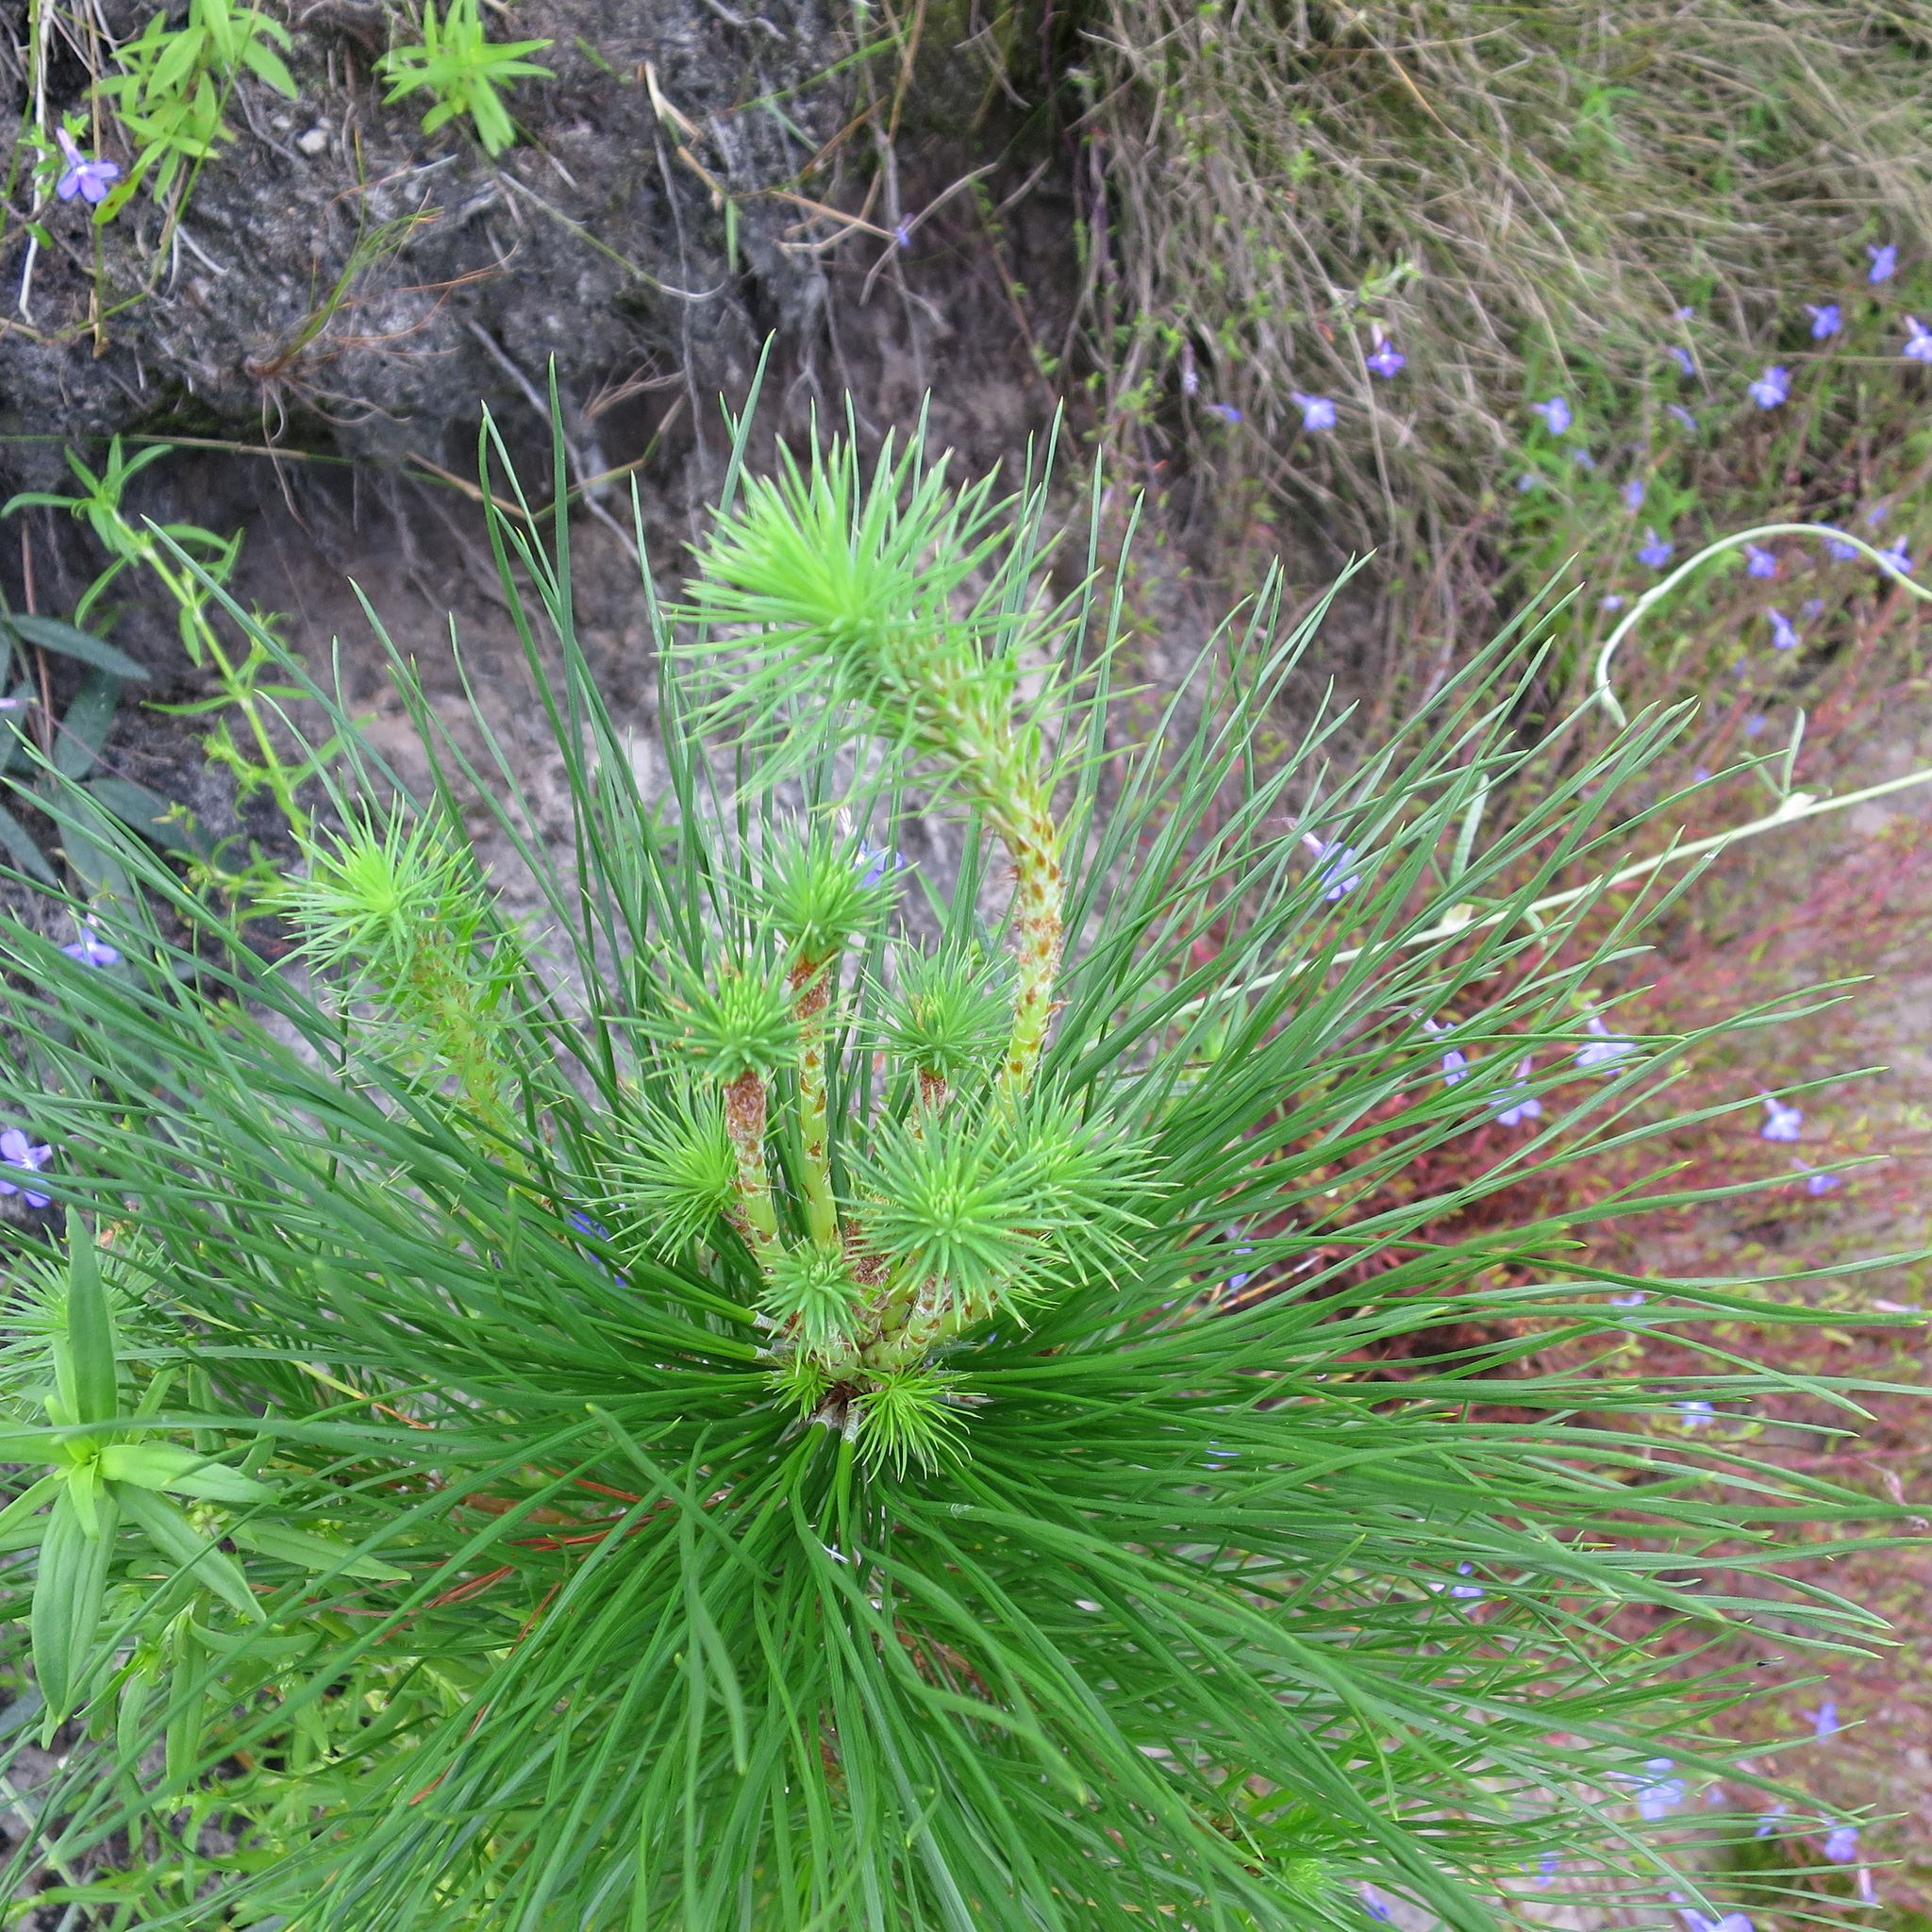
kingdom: Plantae
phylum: Tracheophyta
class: Pinopsida
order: Pinales
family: Pinaceae
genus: Pinus
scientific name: Pinus radiata
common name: Monterey pine
